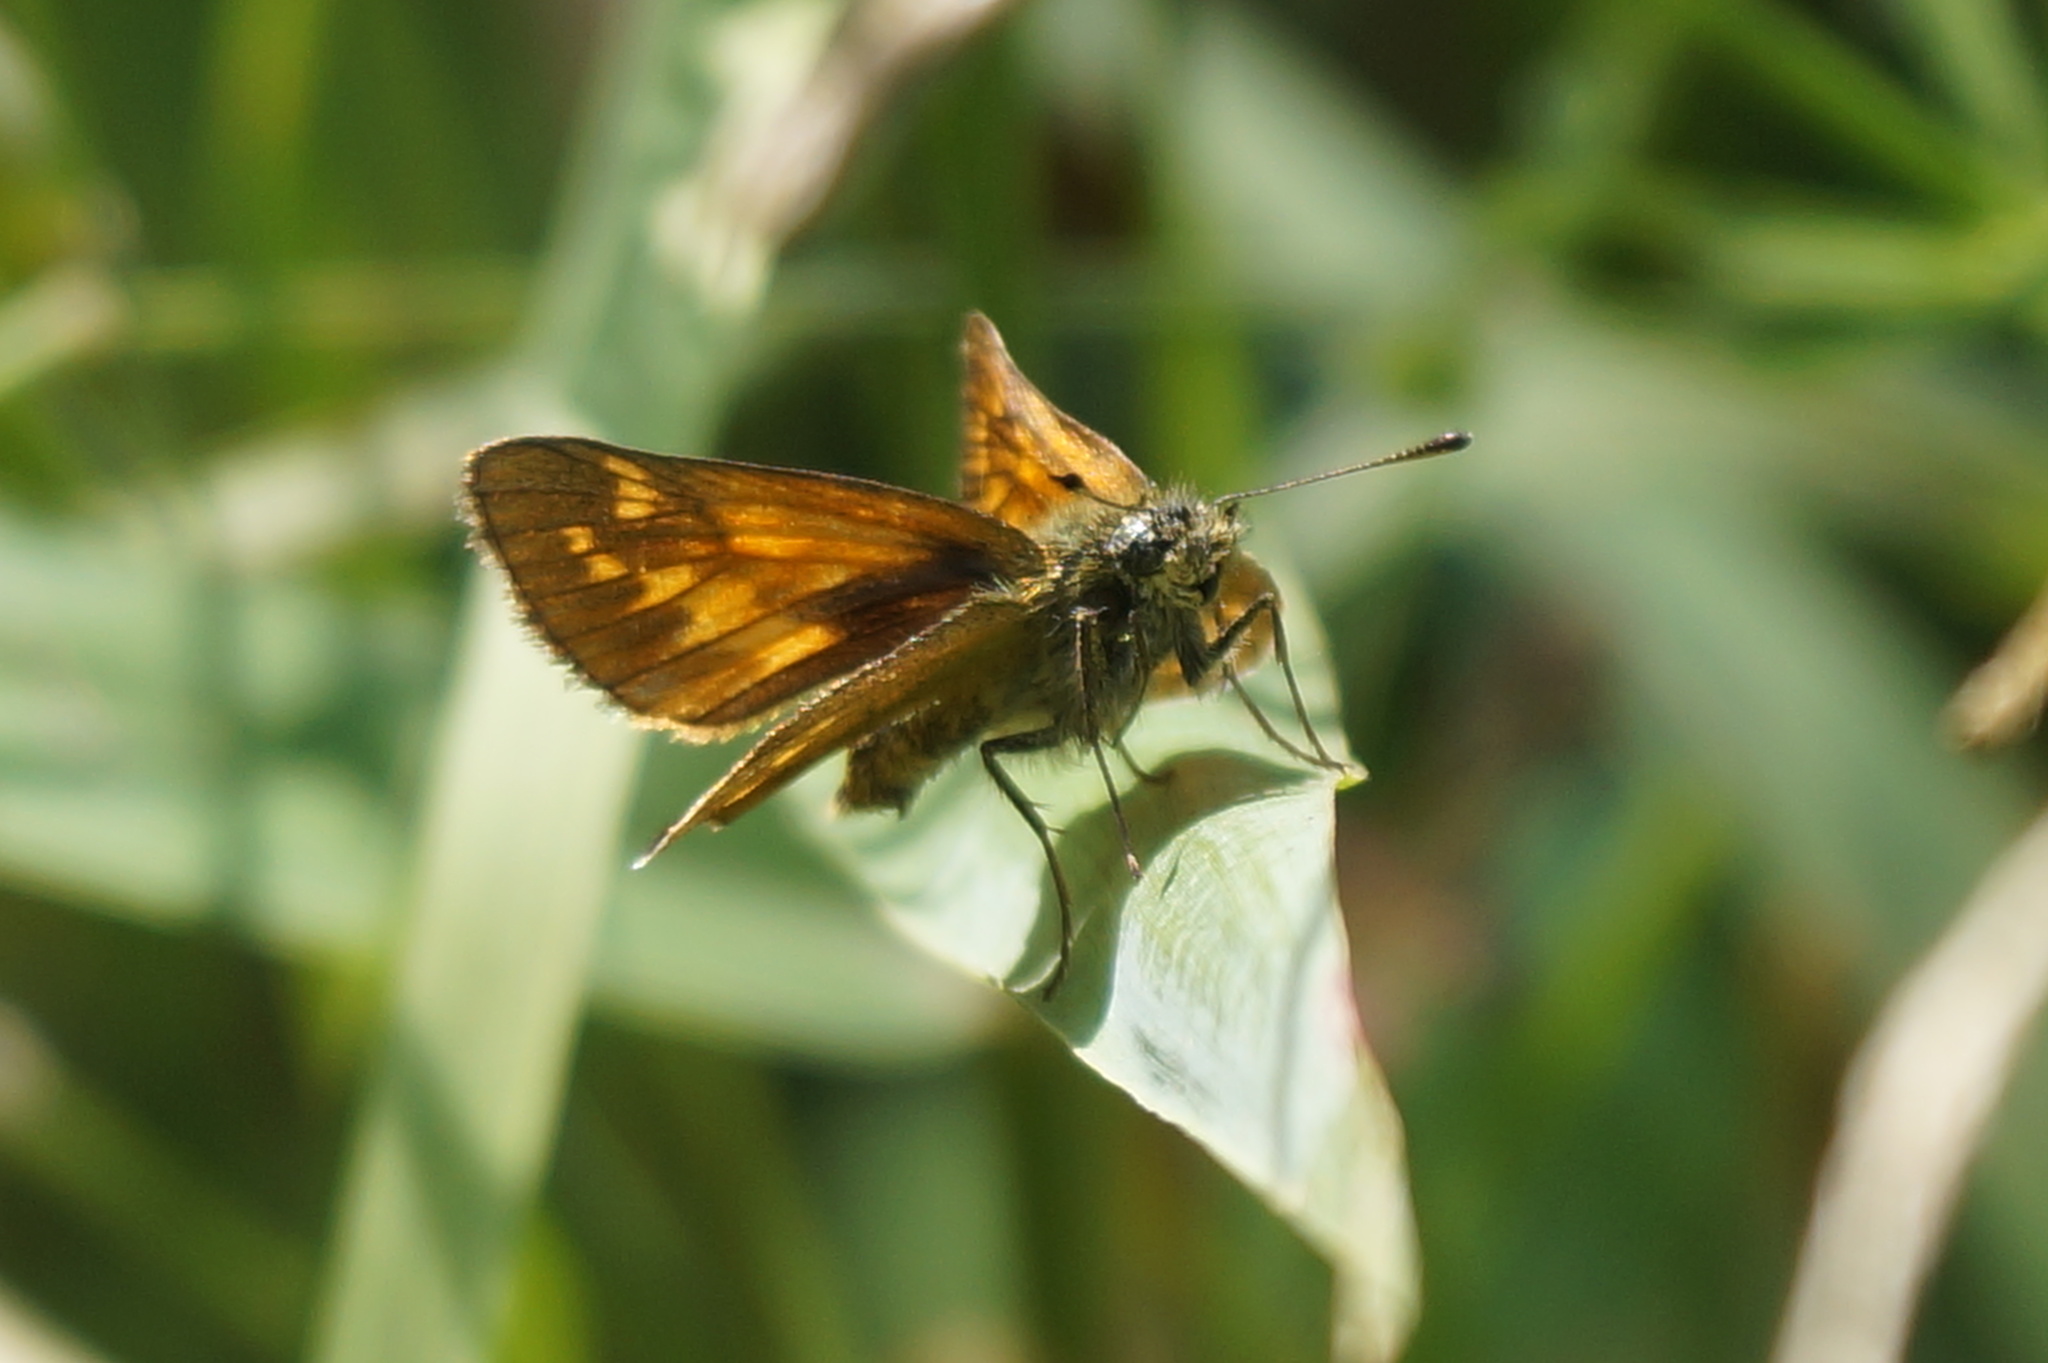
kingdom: Animalia
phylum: Arthropoda
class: Insecta
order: Lepidoptera
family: Hesperiidae
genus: Ochlodes
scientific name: Ochlodes venata
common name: Large skipper
